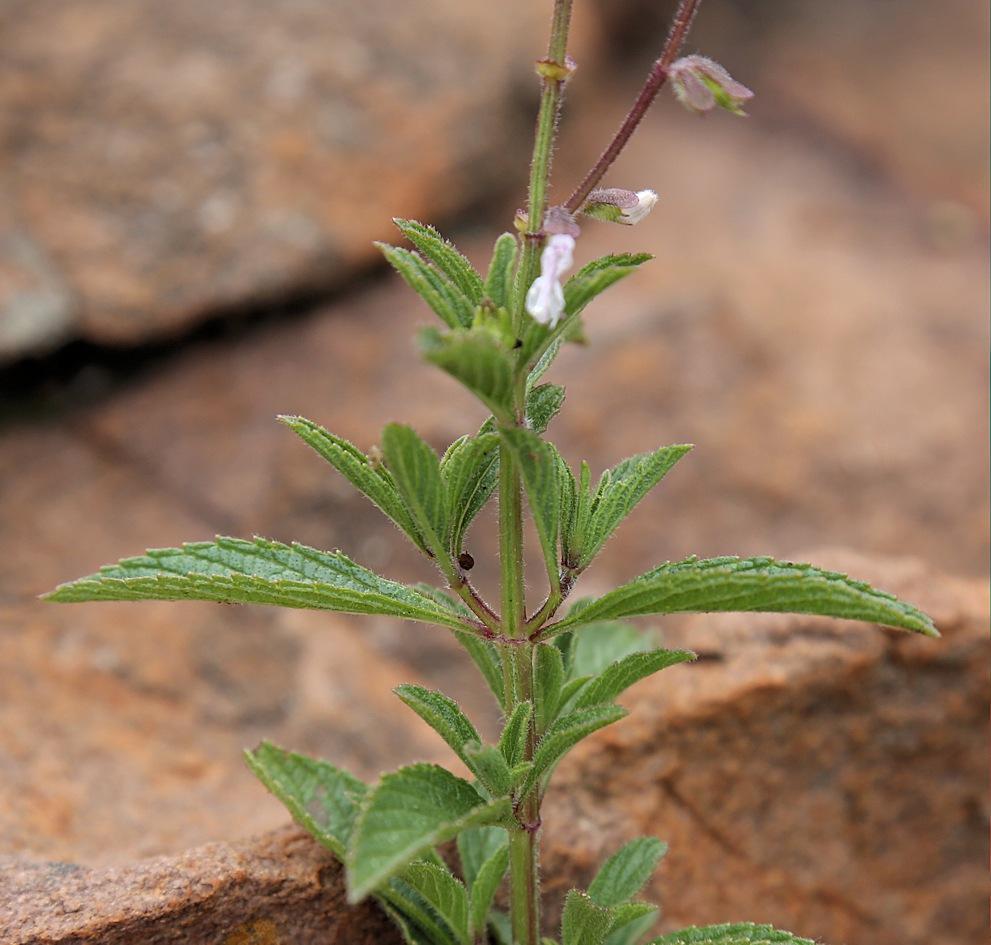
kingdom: Plantae
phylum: Tracheophyta
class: Magnoliopsida
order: Lamiales
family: Lamiaceae
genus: Syncolostemon
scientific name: Syncolostemon canescens
